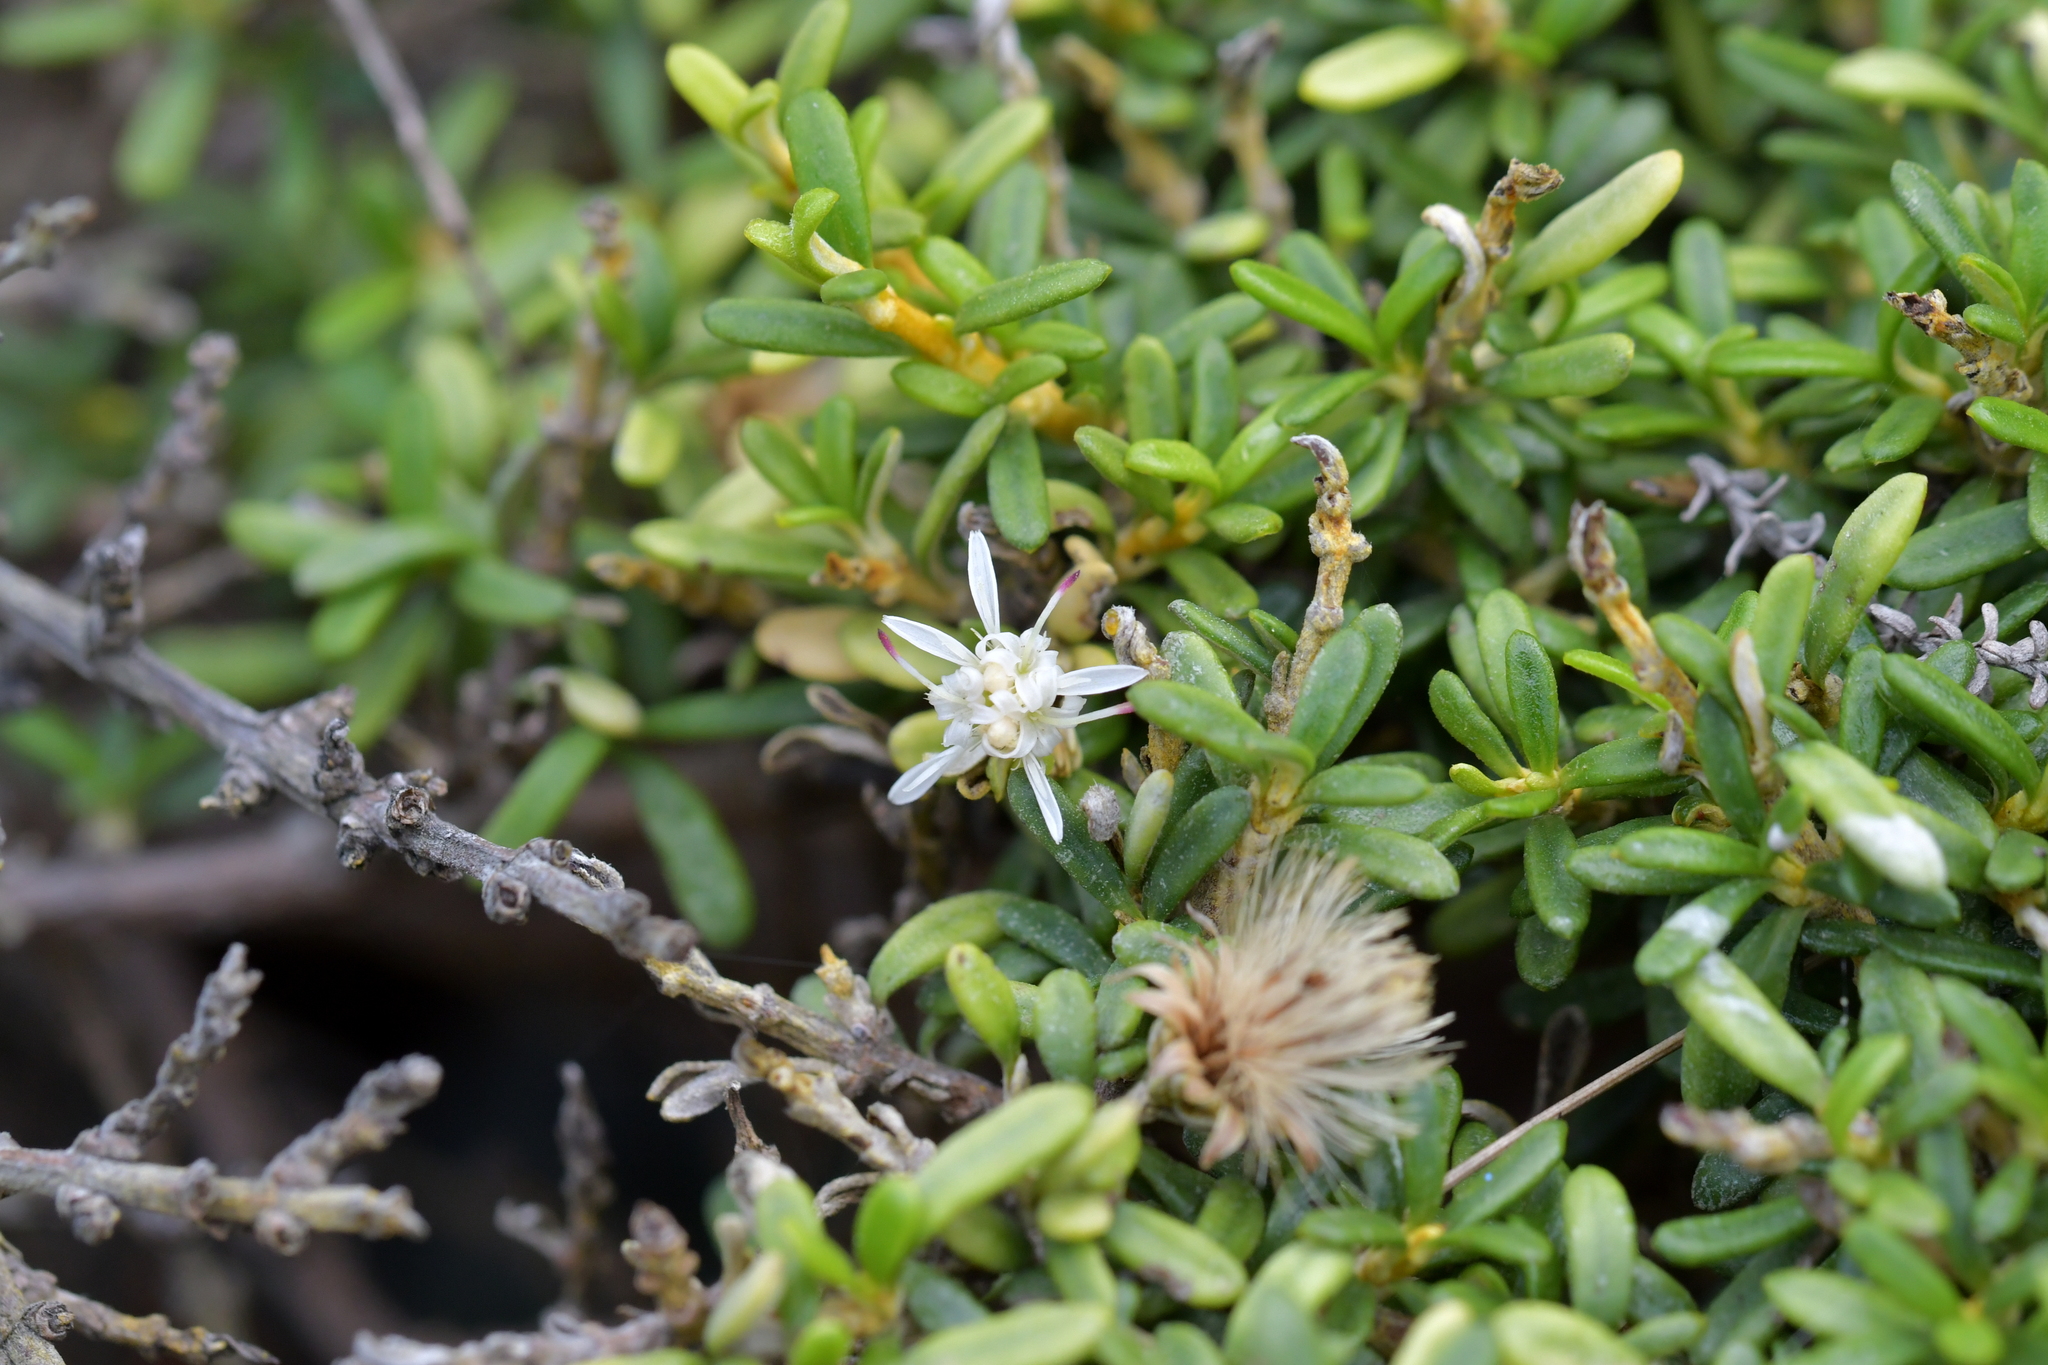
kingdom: Plantae
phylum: Tracheophyta
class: Magnoliopsida
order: Asterales
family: Asteraceae
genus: Olearia
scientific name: Olearia solandri
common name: Coastal daisybush
